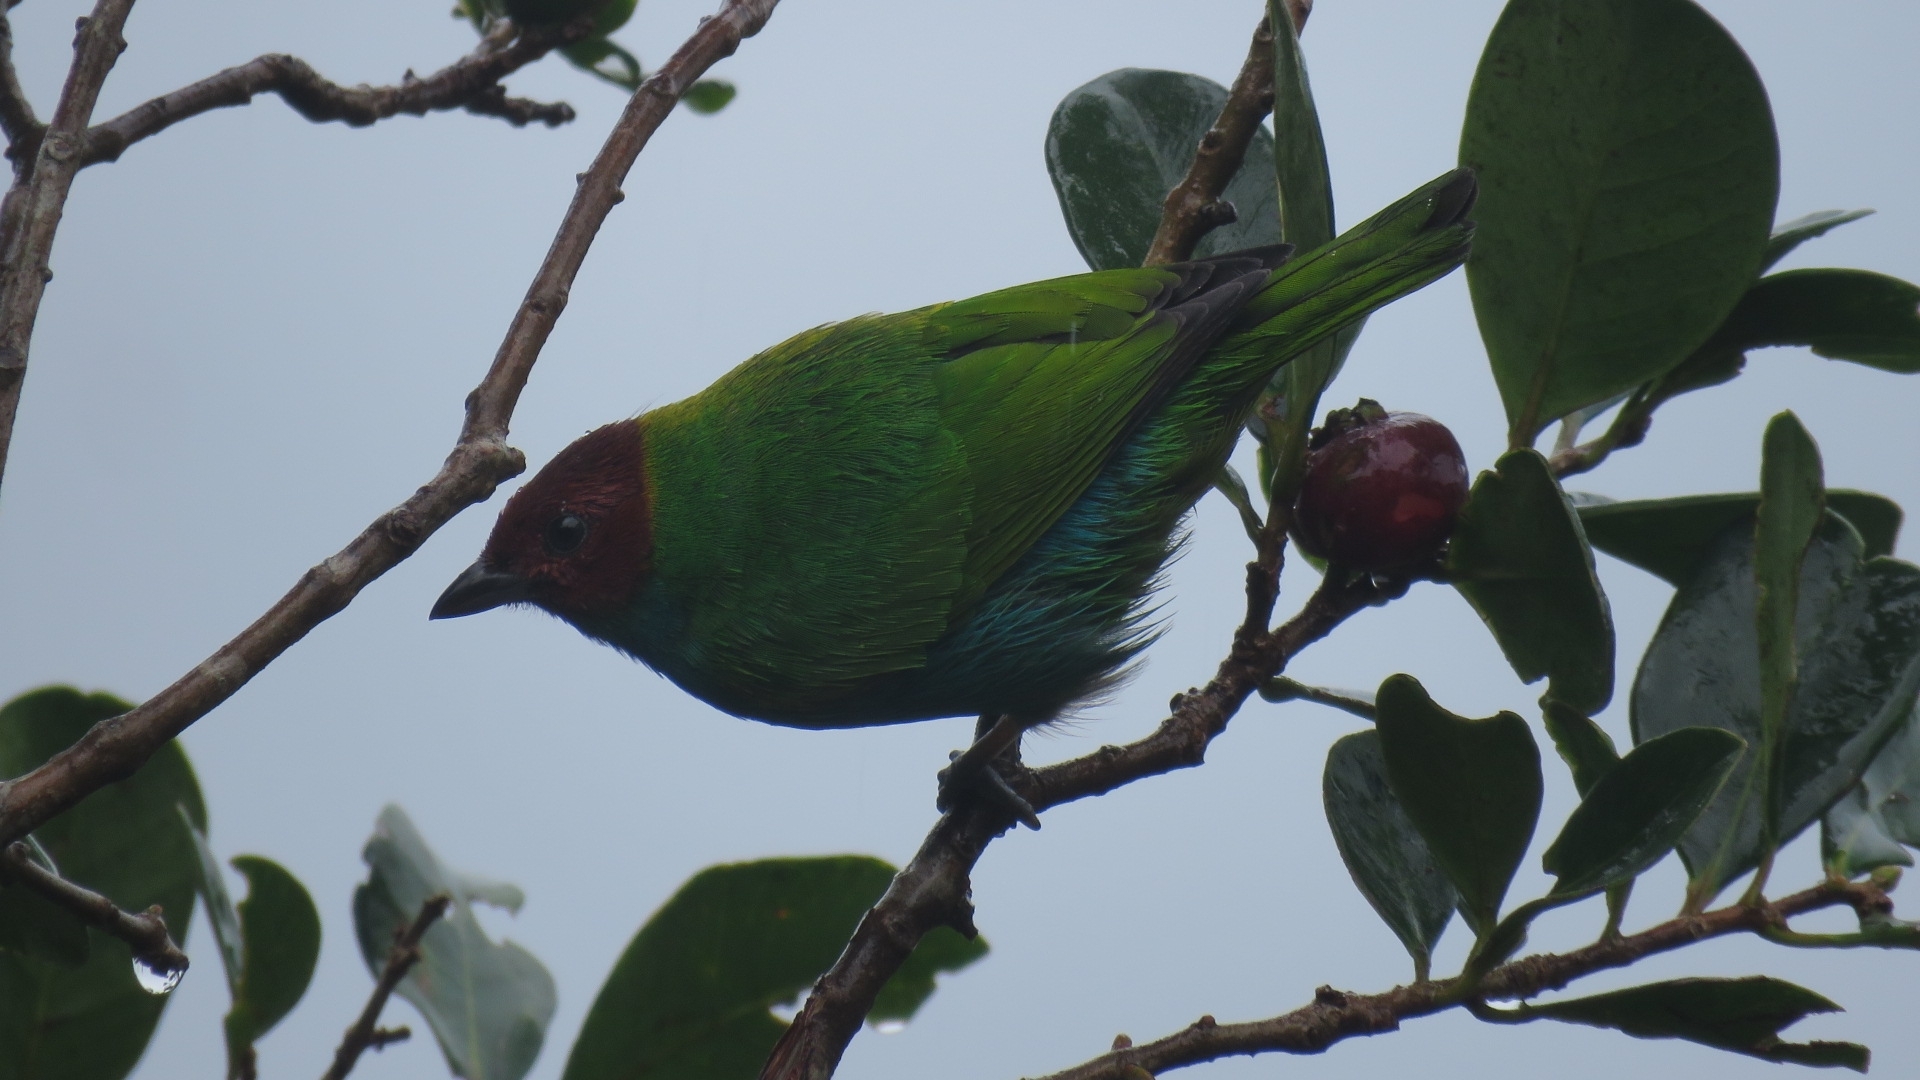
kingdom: Animalia
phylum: Chordata
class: Aves
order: Passeriformes
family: Thraupidae
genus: Tangara
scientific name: Tangara gyrola
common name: Bay-headed tanager
